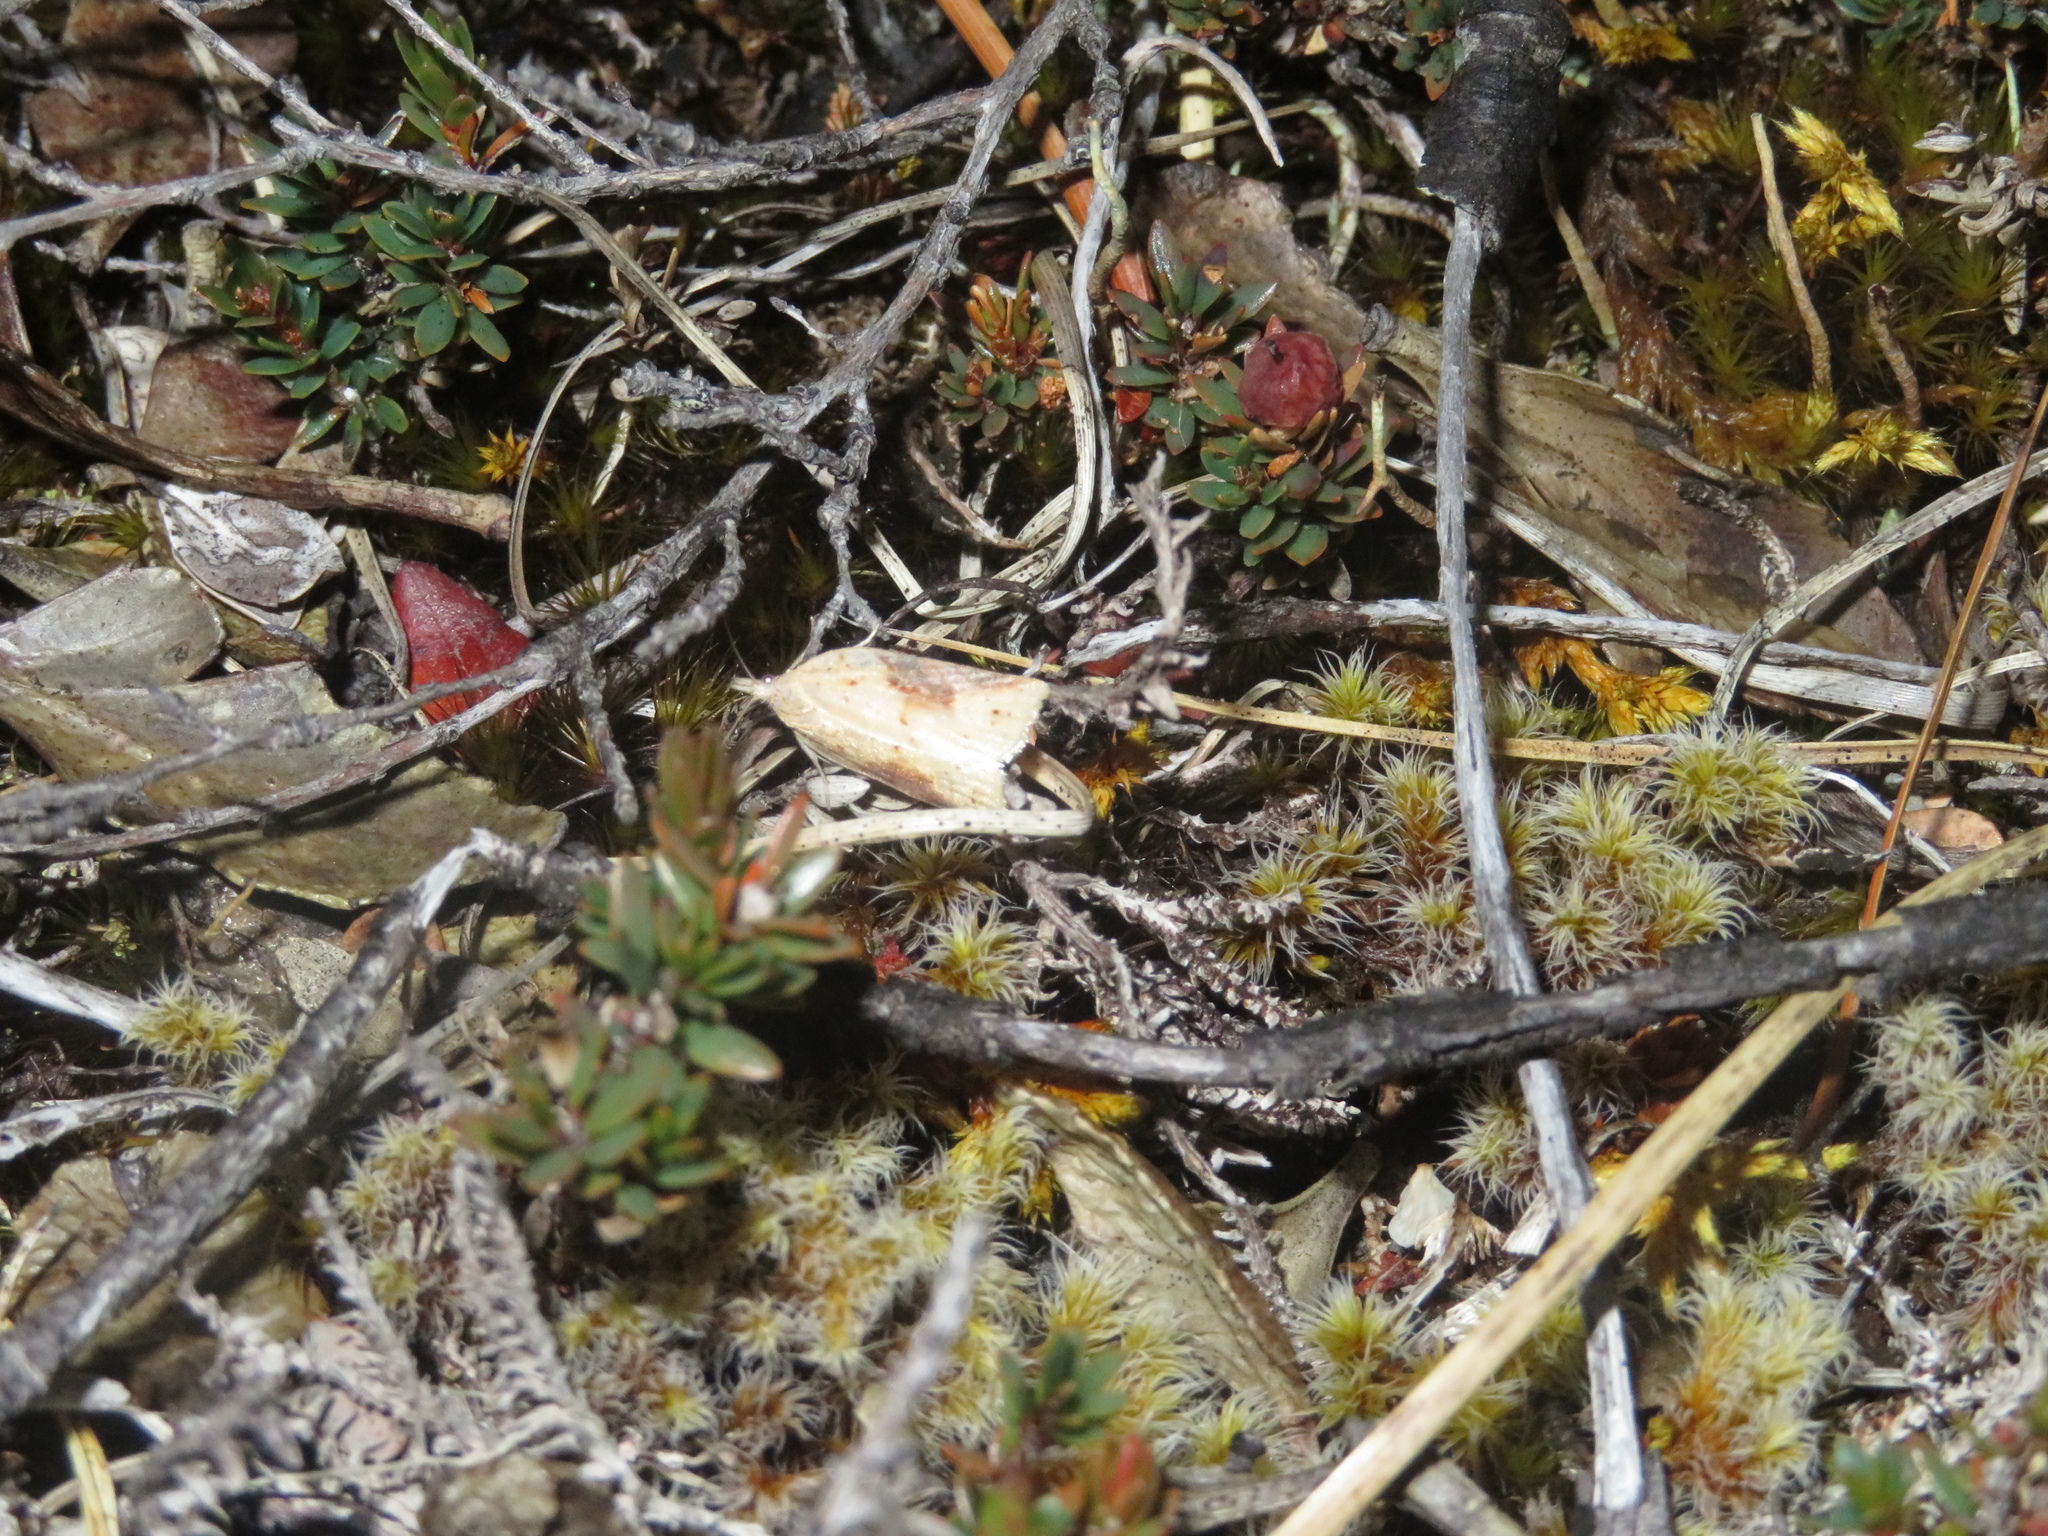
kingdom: Animalia
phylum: Arthropoda
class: Insecta
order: Lepidoptera
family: Tortricidae
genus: Apoctena
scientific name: Apoctena conditana
